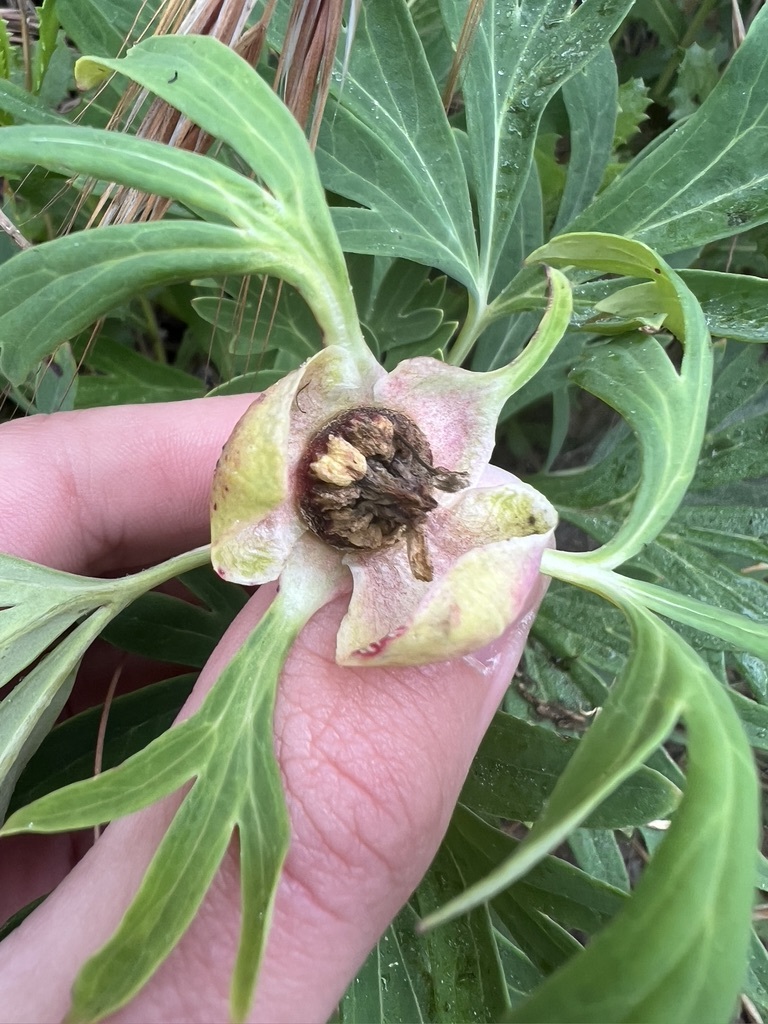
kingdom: Plantae
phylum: Tracheophyta
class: Magnoliopsida
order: Saxifragales
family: Paeoniaceae
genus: Paeonia
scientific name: Paeonia californica
